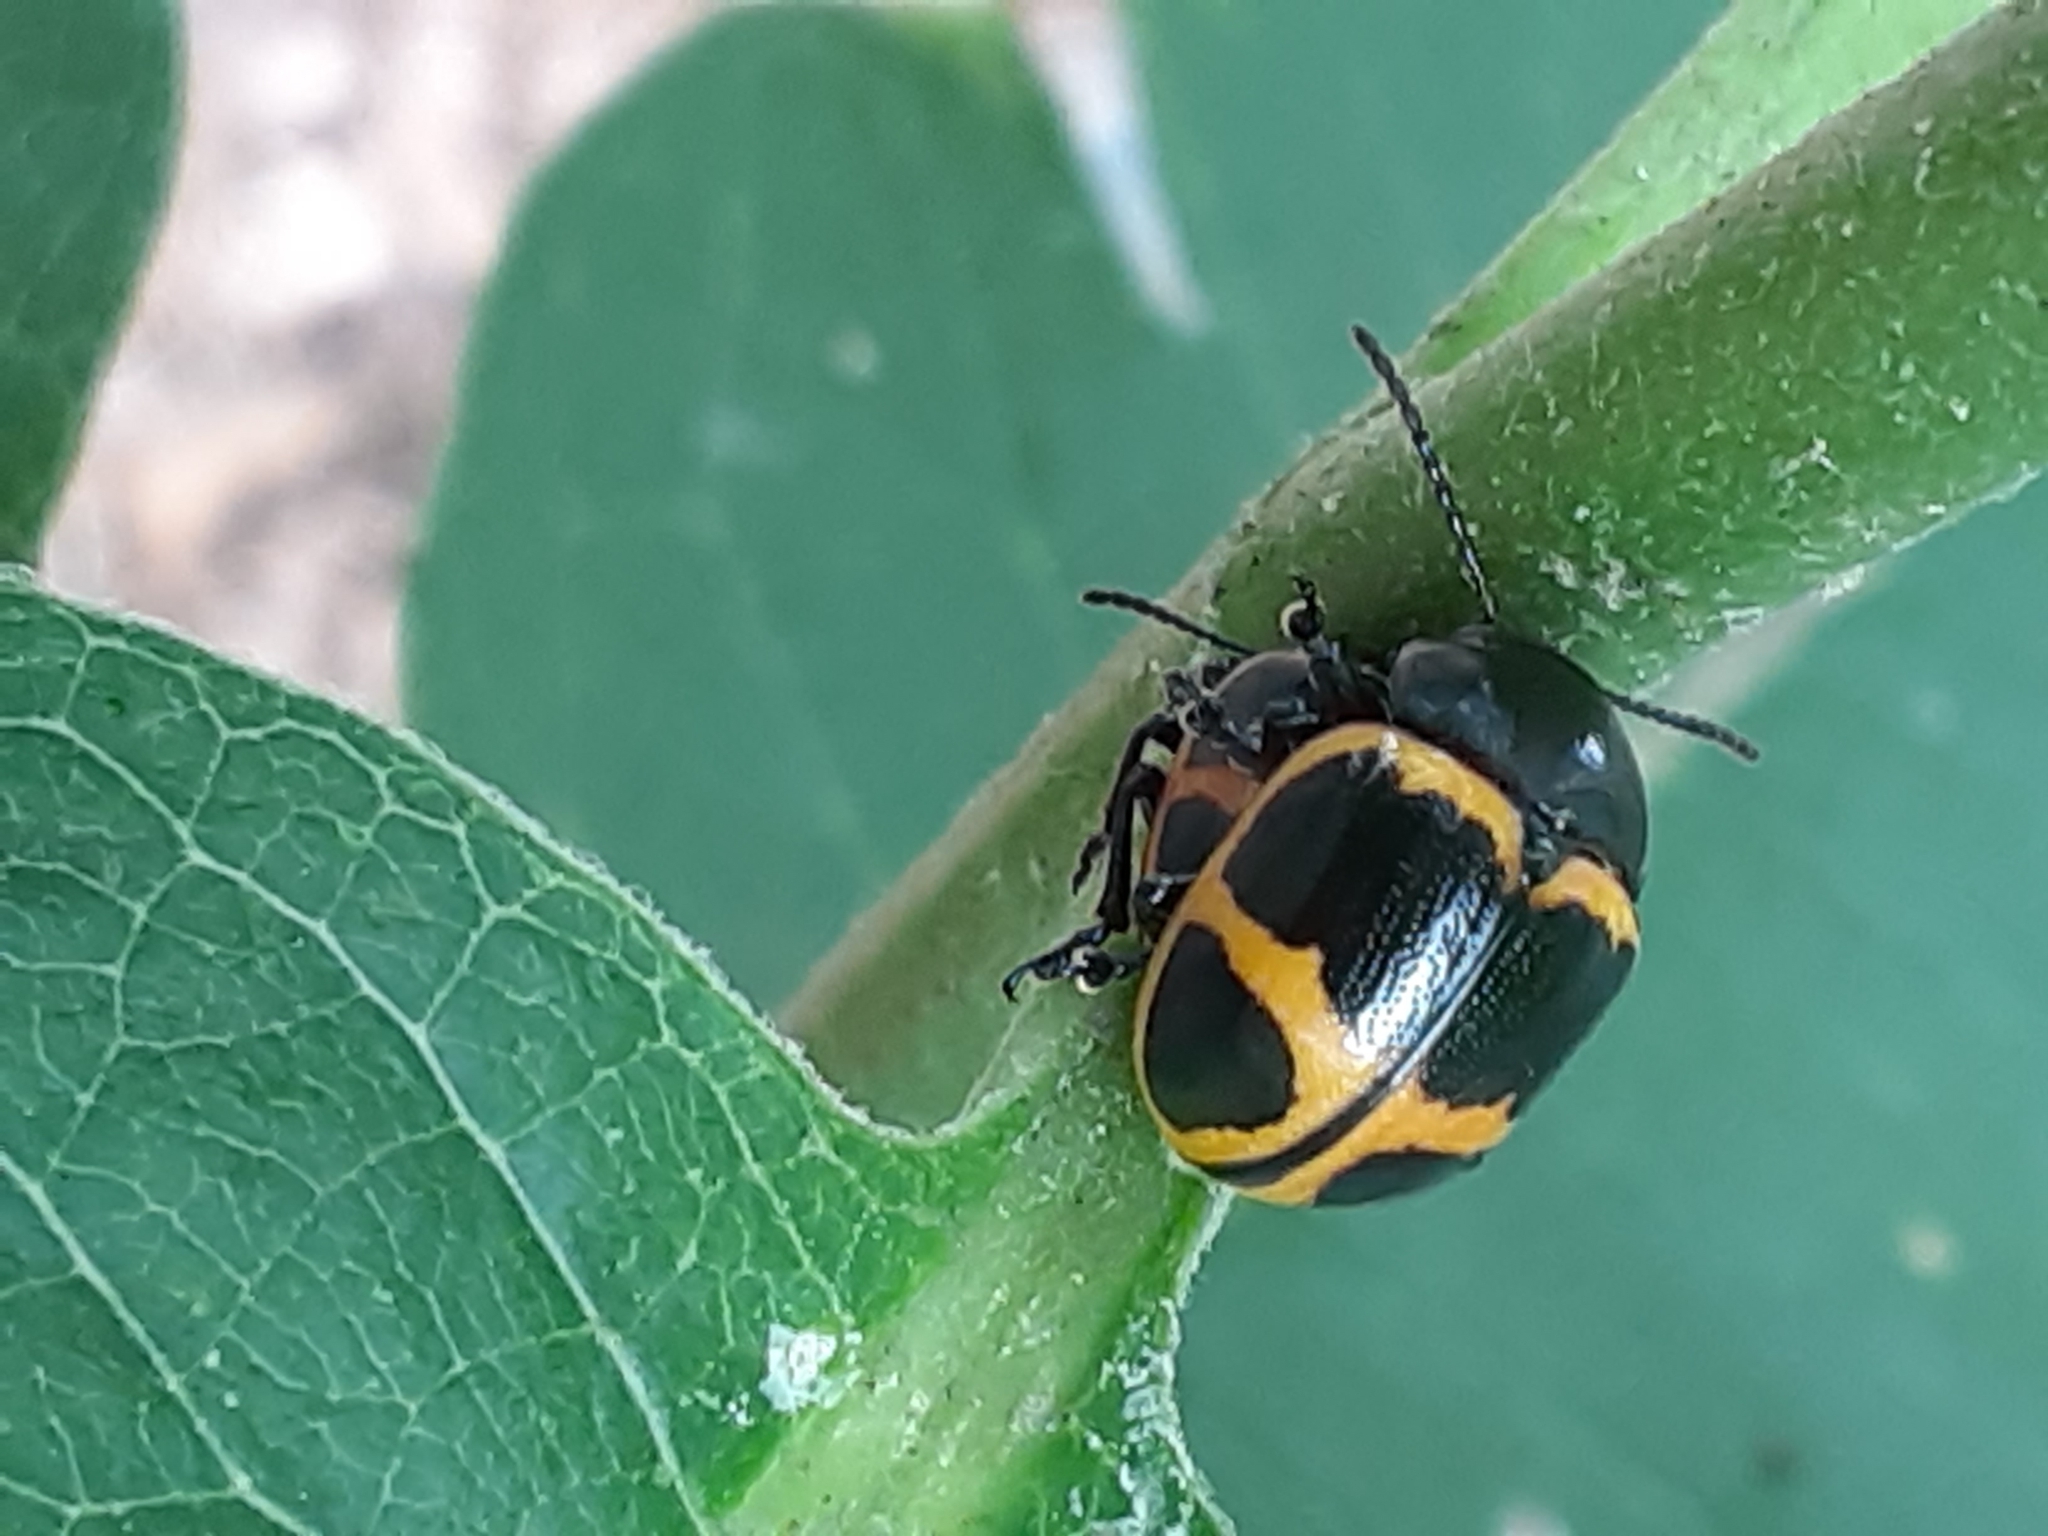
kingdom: Animalia
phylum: Arthropoda
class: Insecta
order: Coleoptera
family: Chrysomelidae
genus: Labidomera
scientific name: Labidomera clivicollis
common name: Swamp milkweed leaf beetle
